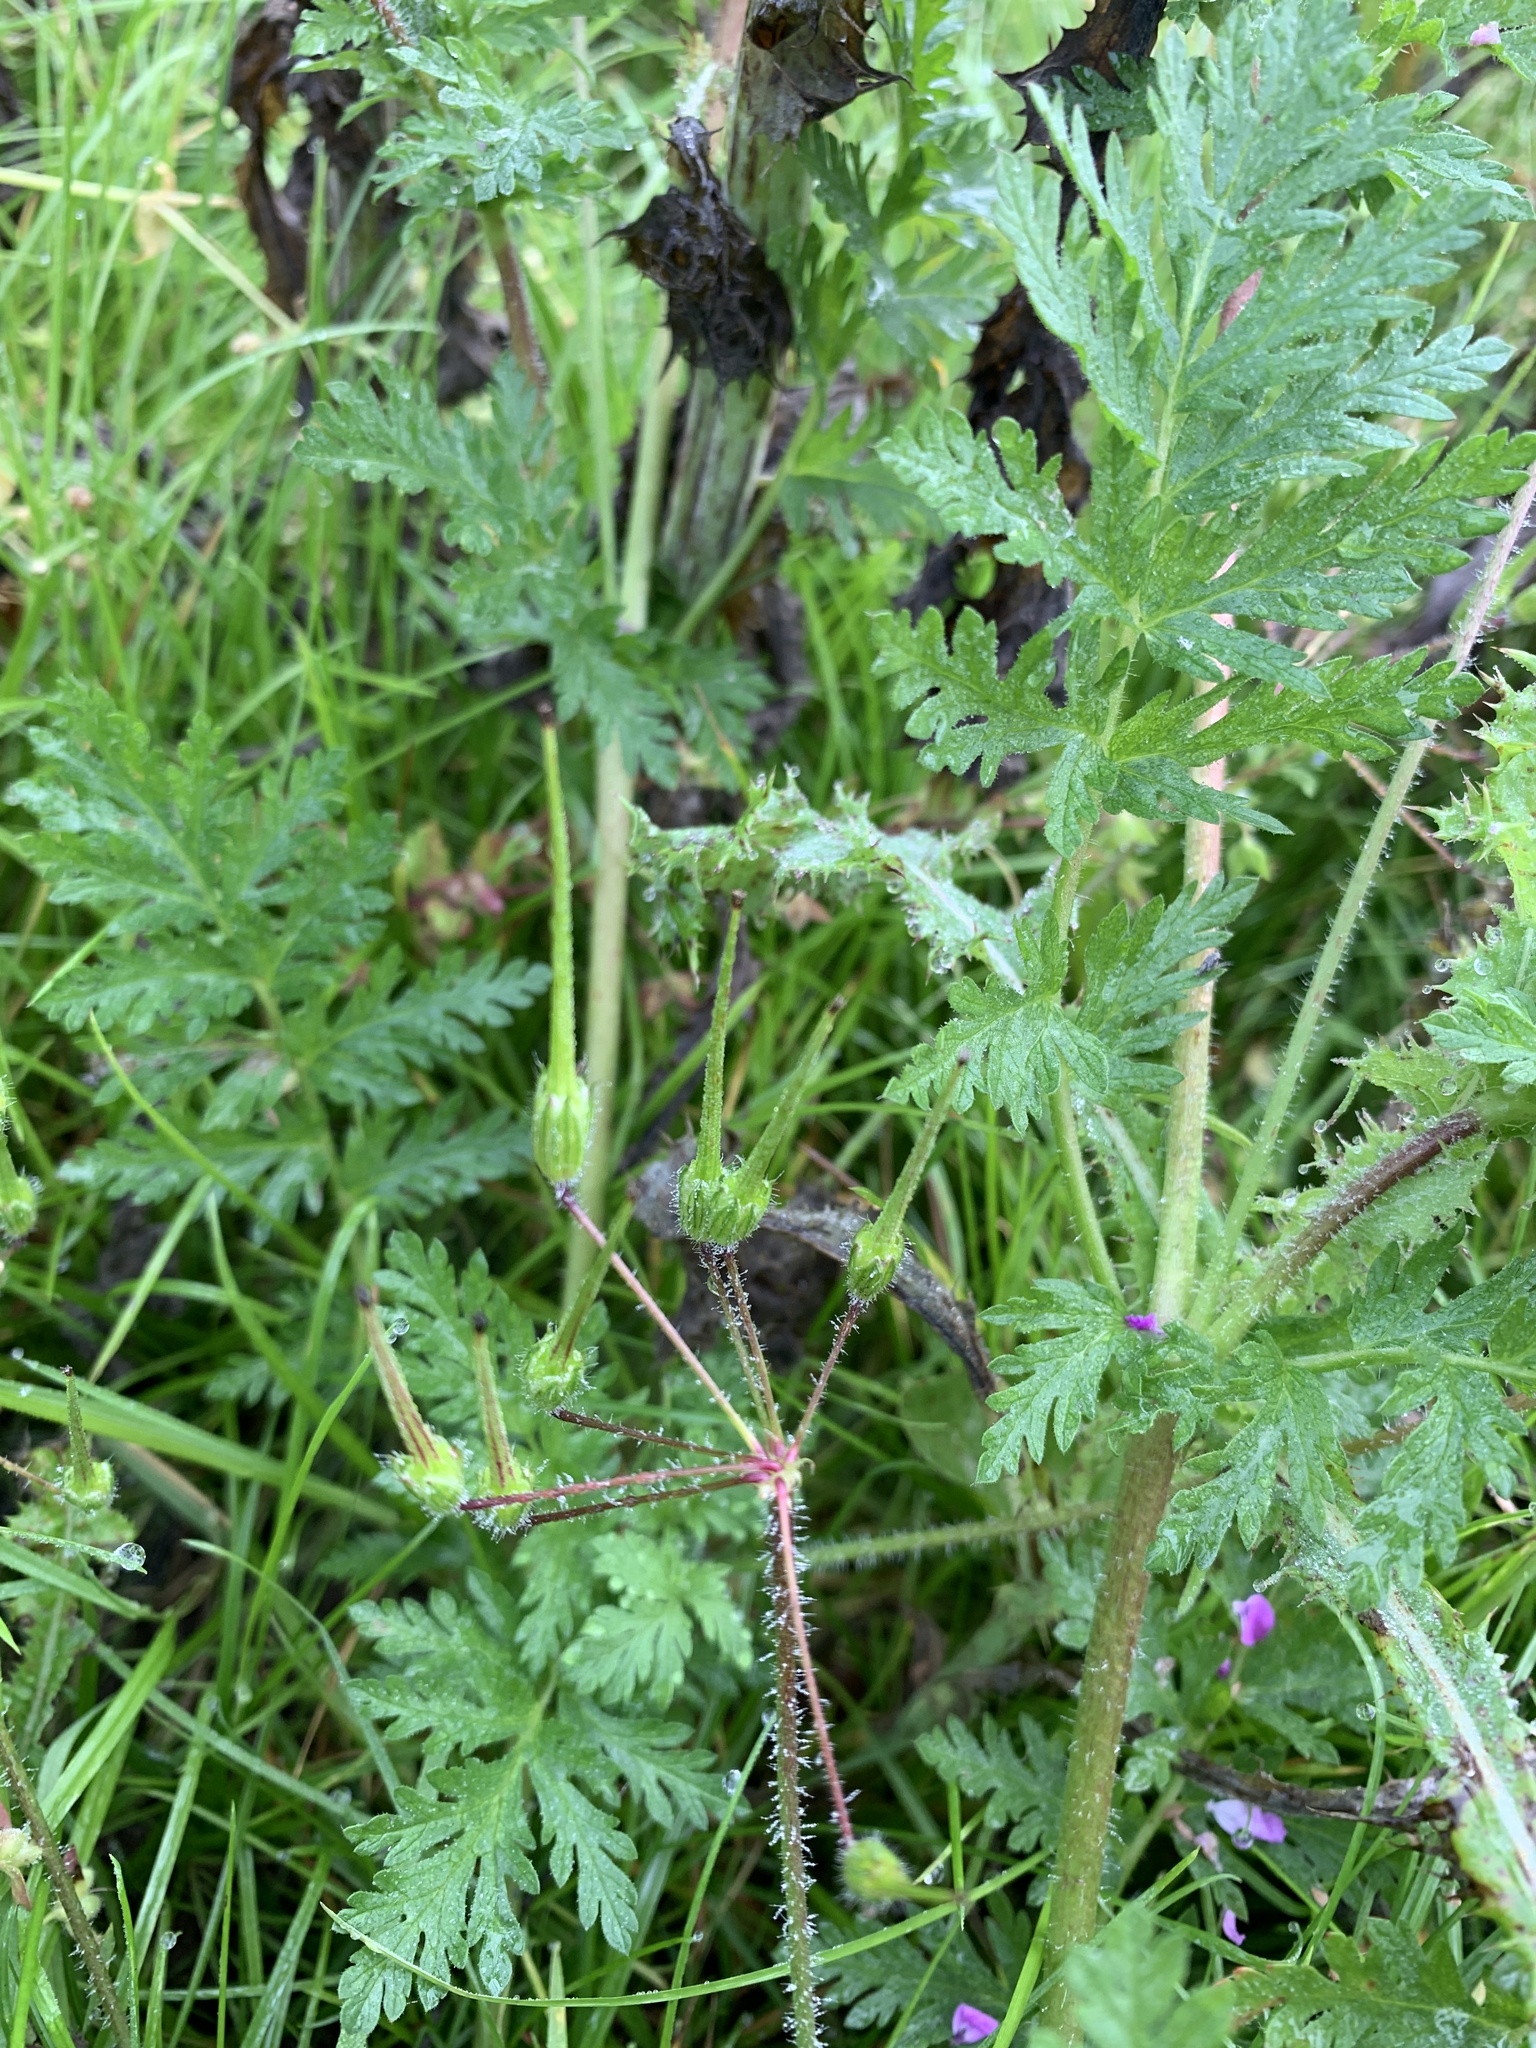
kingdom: Plantae
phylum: Tracheophyta
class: Magnoliopsida
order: Geraniales
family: Geraniaceae
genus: Erodium
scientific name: Erodium cicutarium
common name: Common stork's-bill
